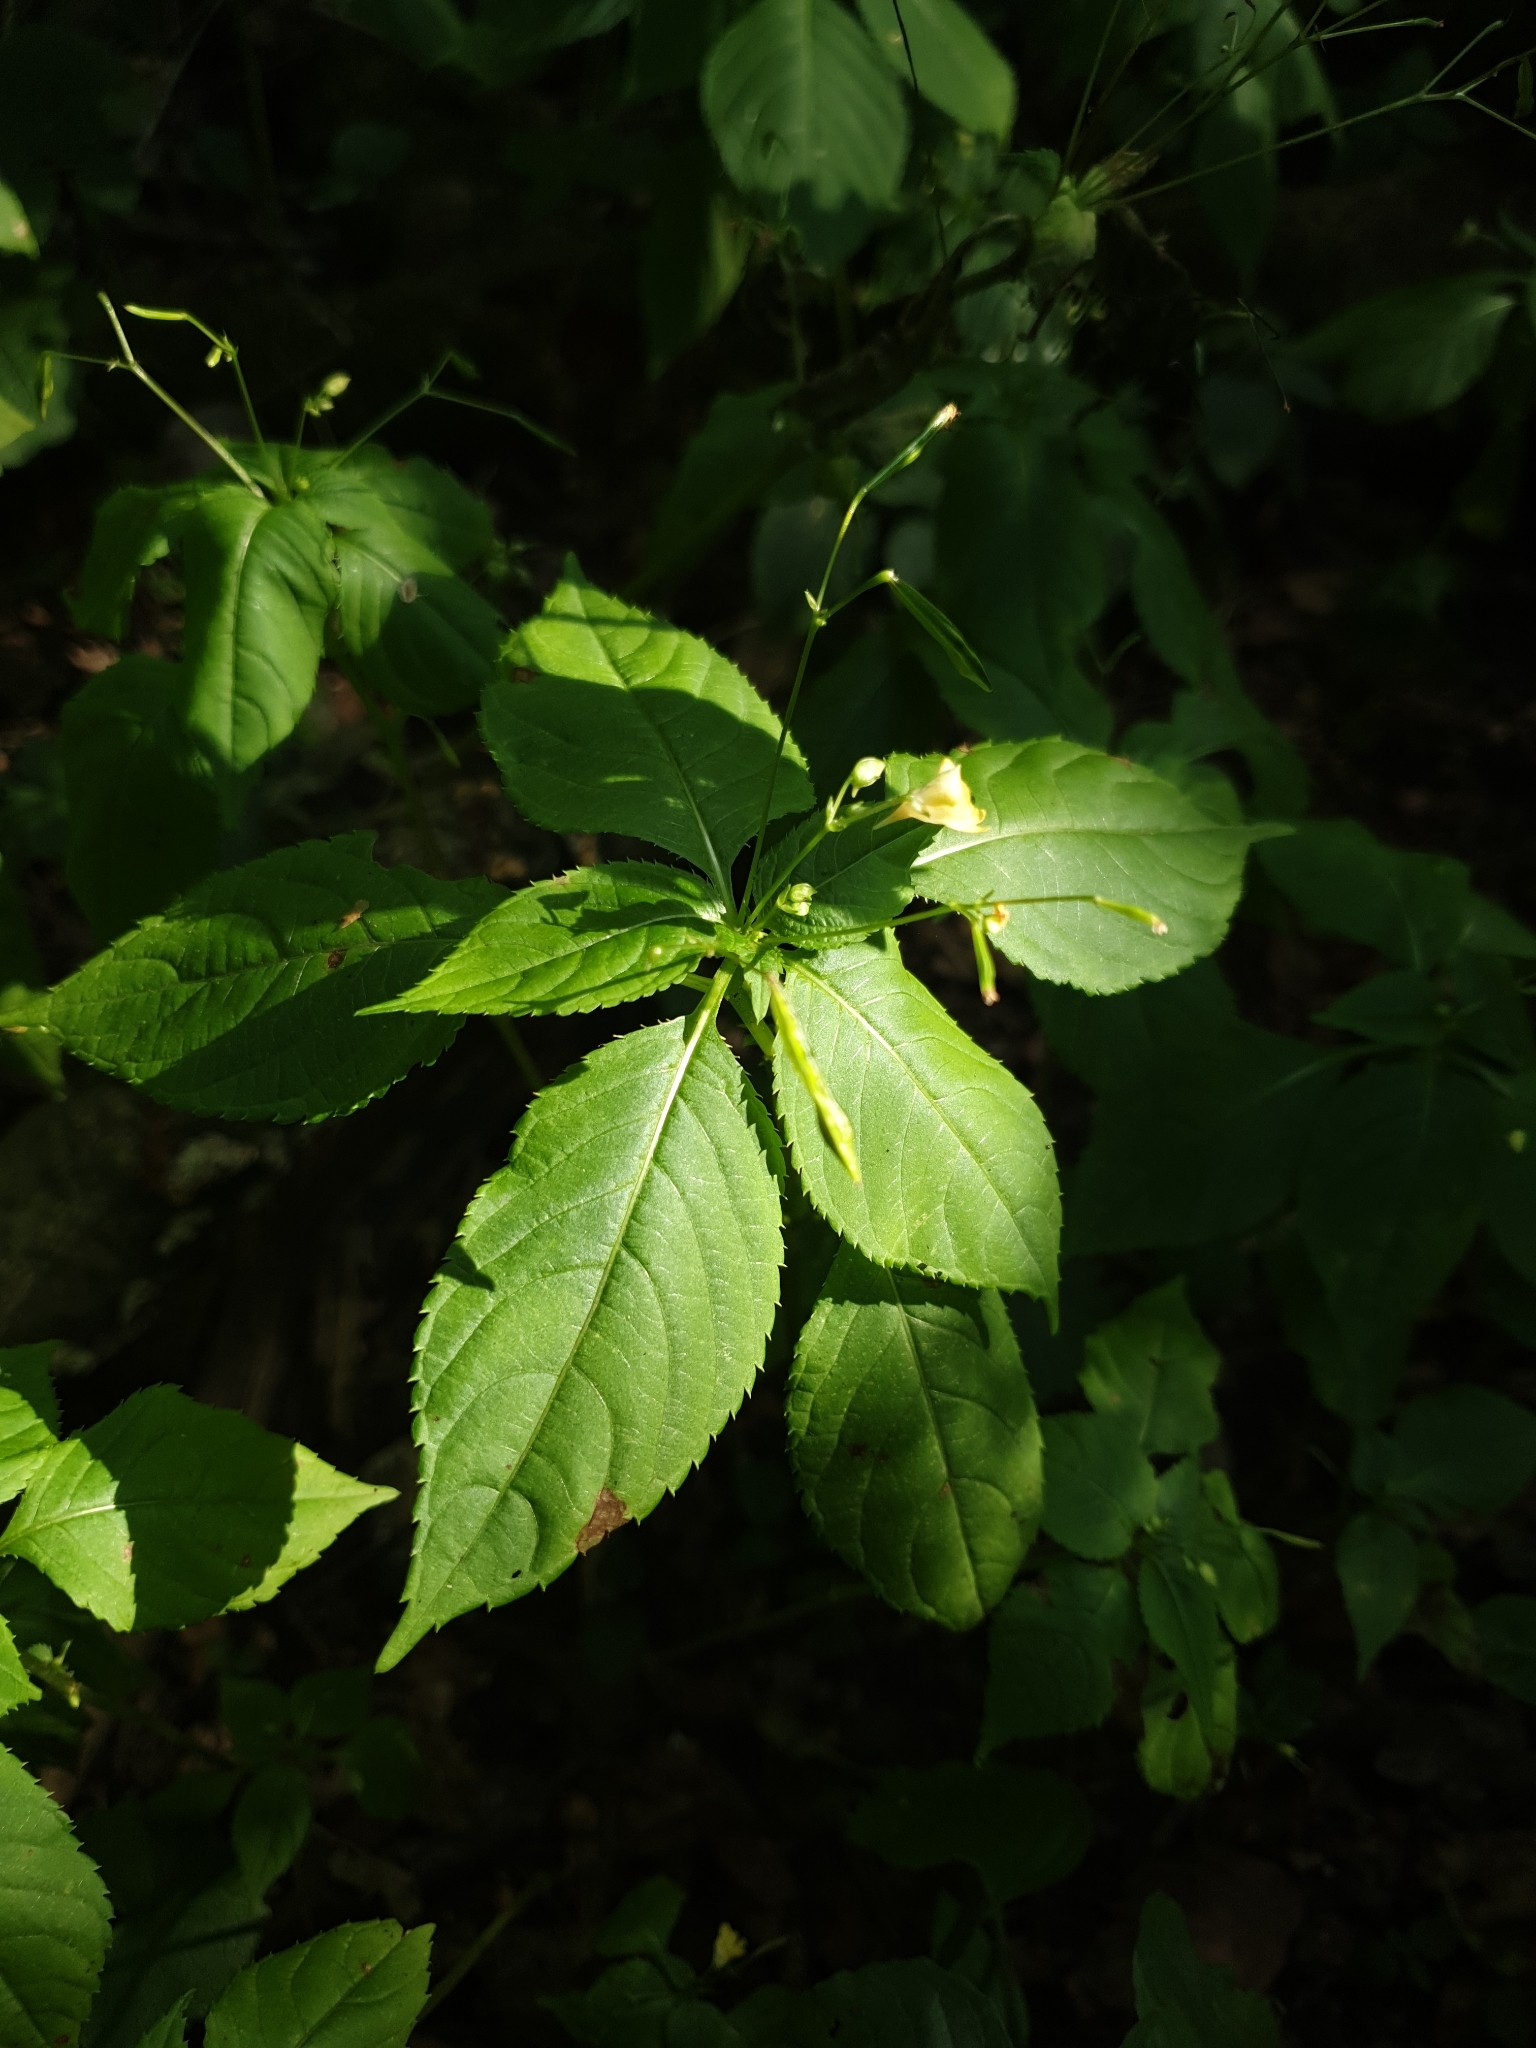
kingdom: Plantae
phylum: Tracheophyta
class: Magnoliopsida
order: Ericales
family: Balsaminaceae
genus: Impatiens
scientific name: Impatiens parviflora
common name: Small balsam
